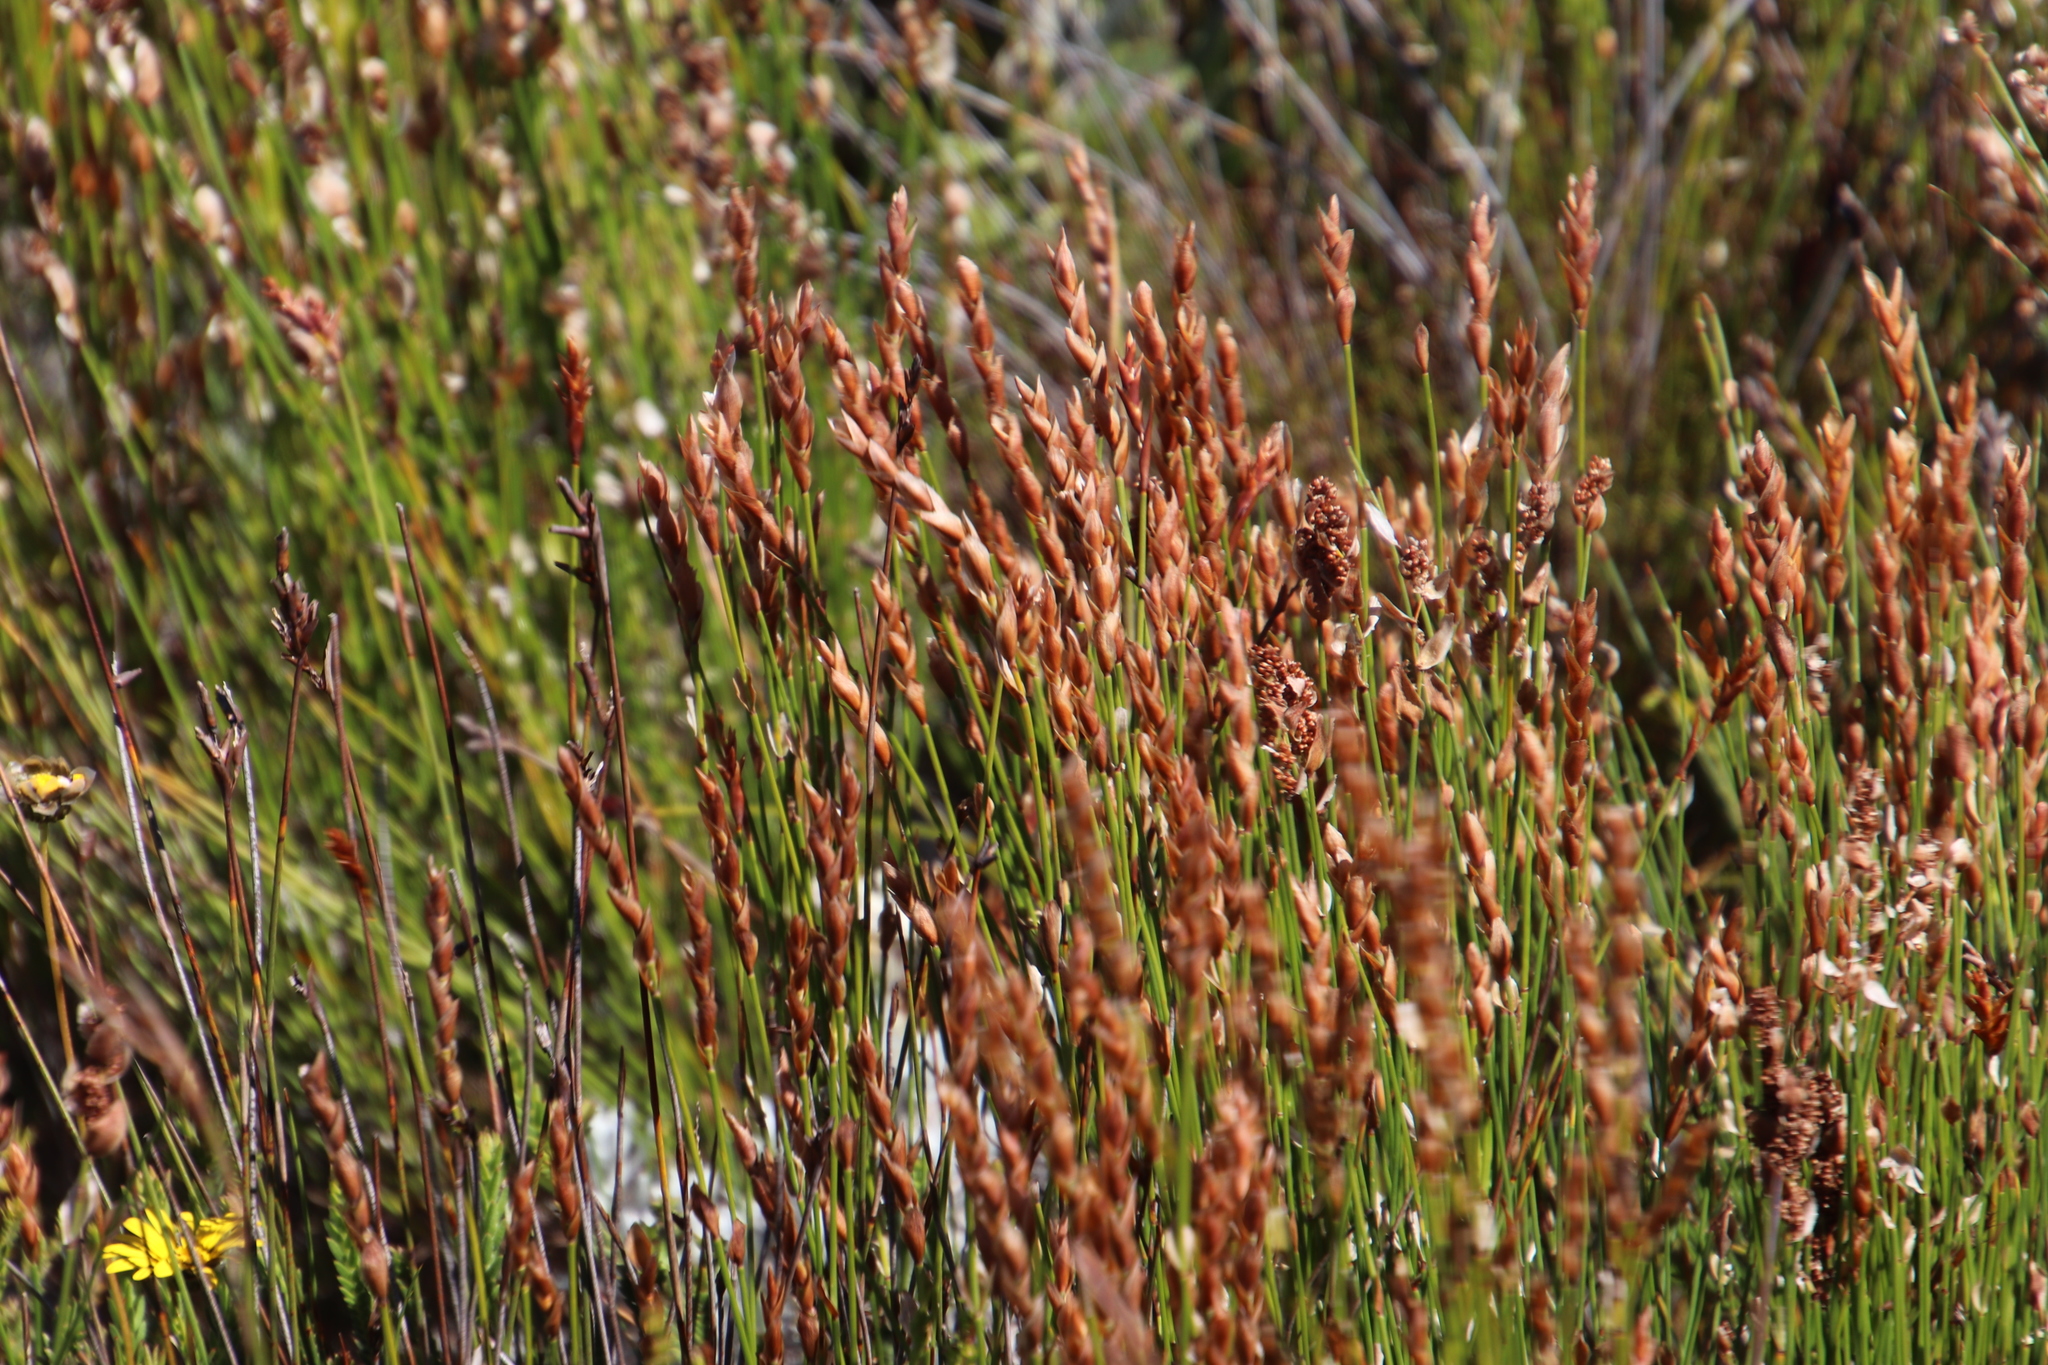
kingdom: Plantae
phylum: Tracheophyta
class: Liliopsida
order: Poales
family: Restionaceae
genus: Elegia
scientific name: Elegia stipularis
